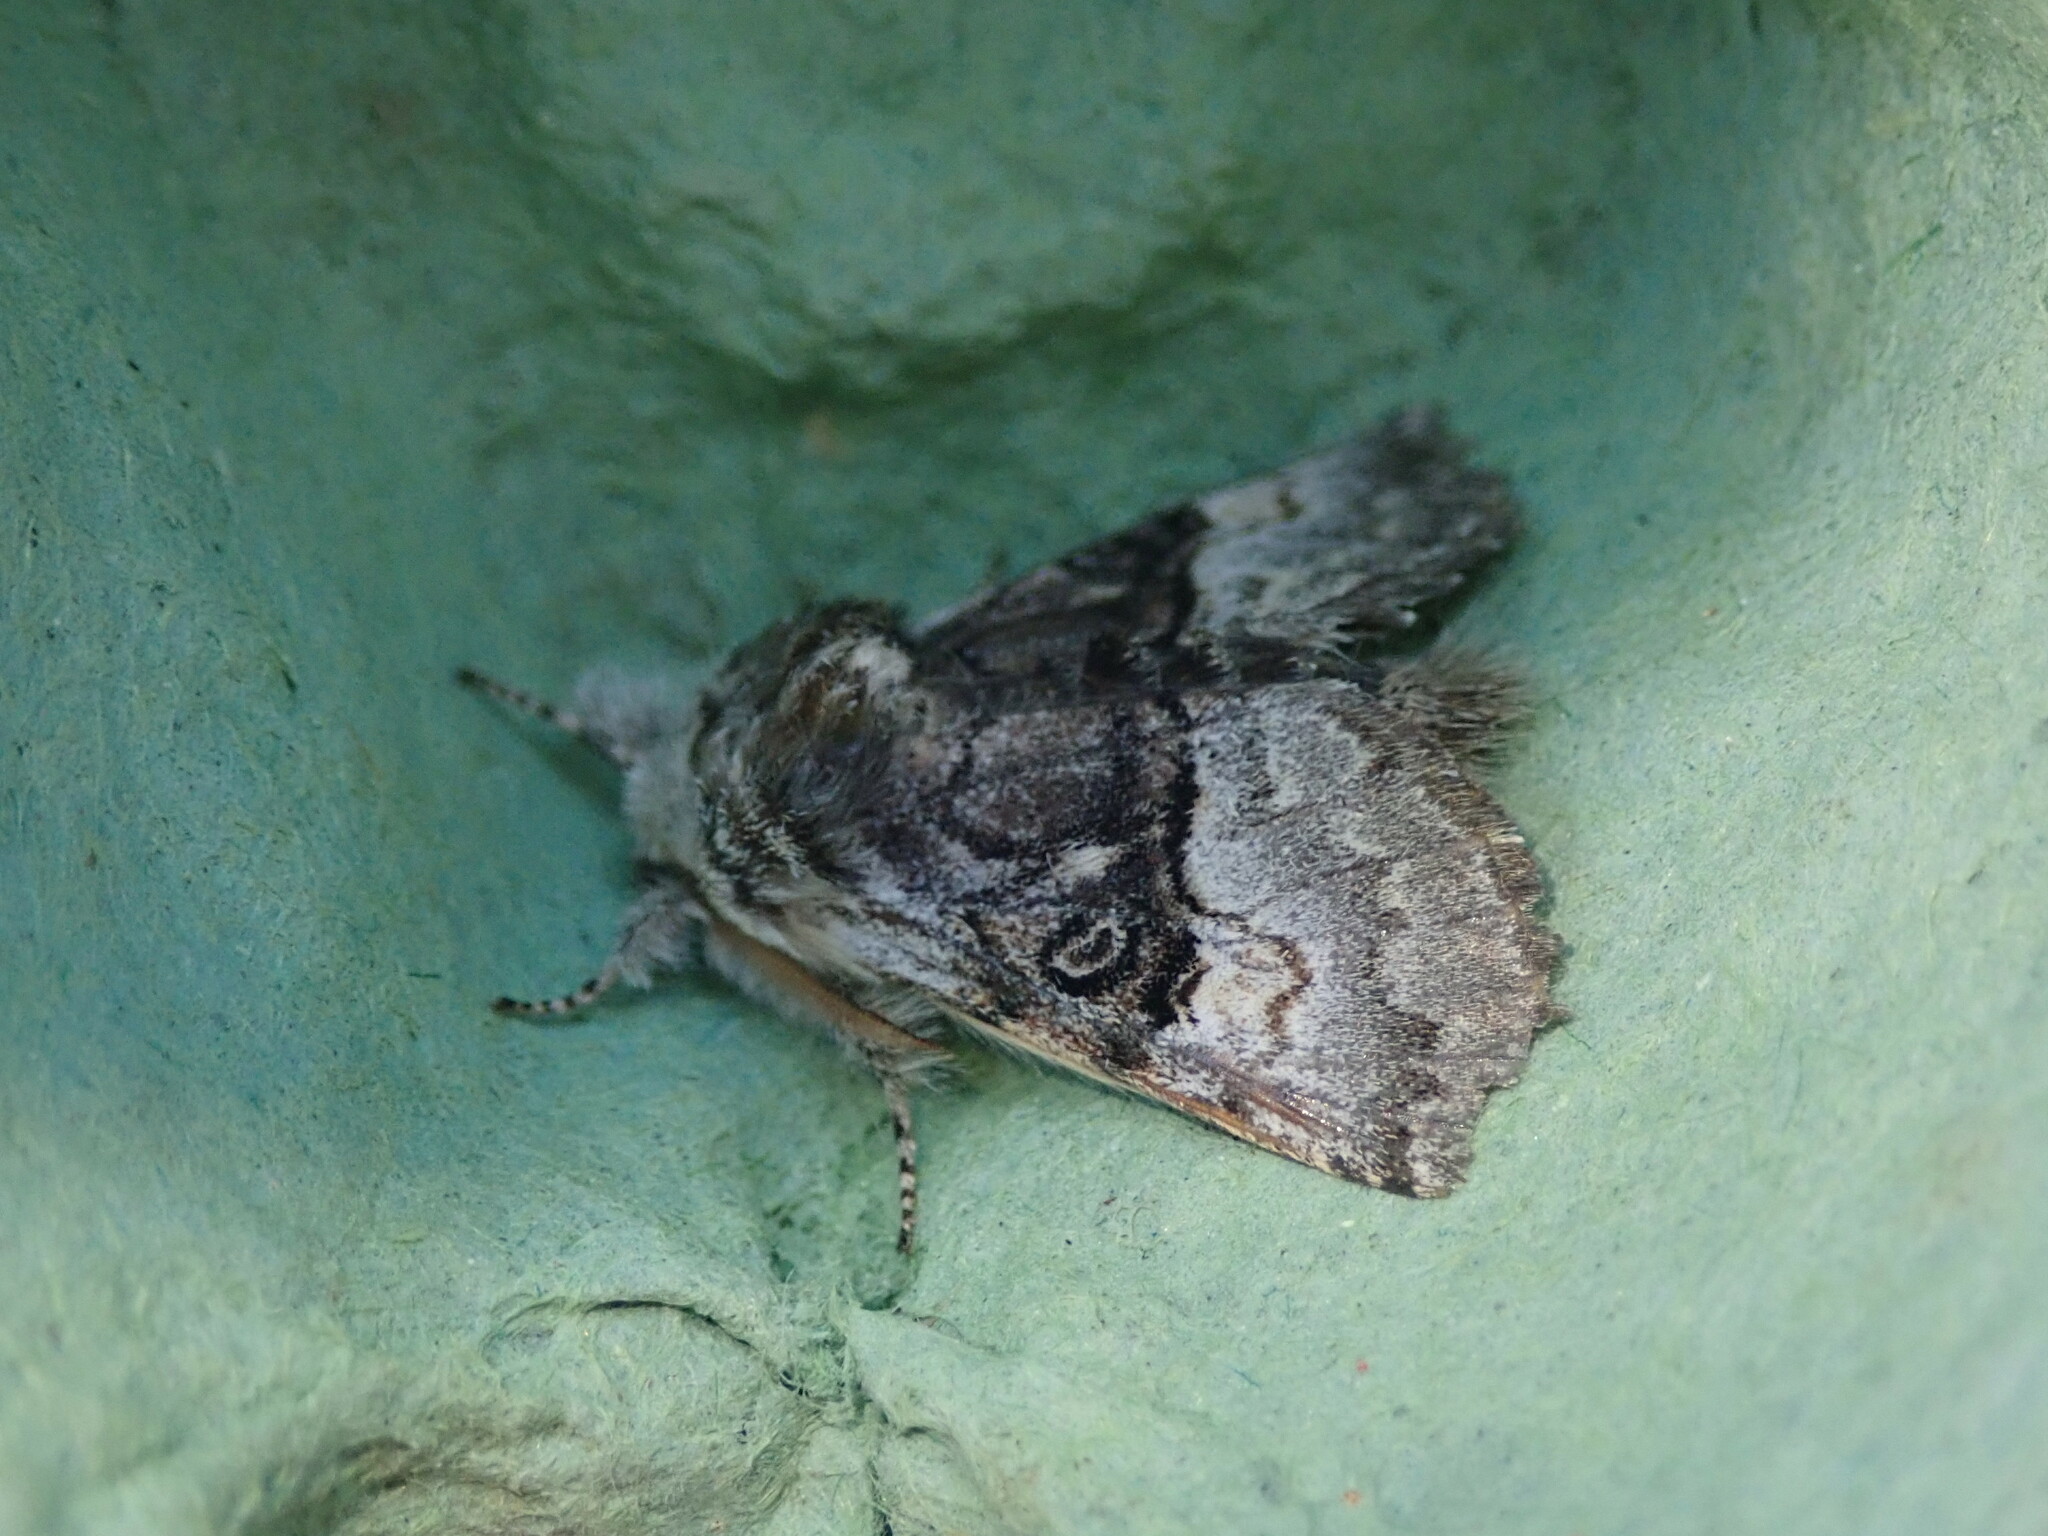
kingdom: Animalia
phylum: Arthropoda
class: Insecta
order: Lepidoptera
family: Noctuidae
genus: Colocasia
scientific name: Colocasia coryli
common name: Nut-tree tussock
